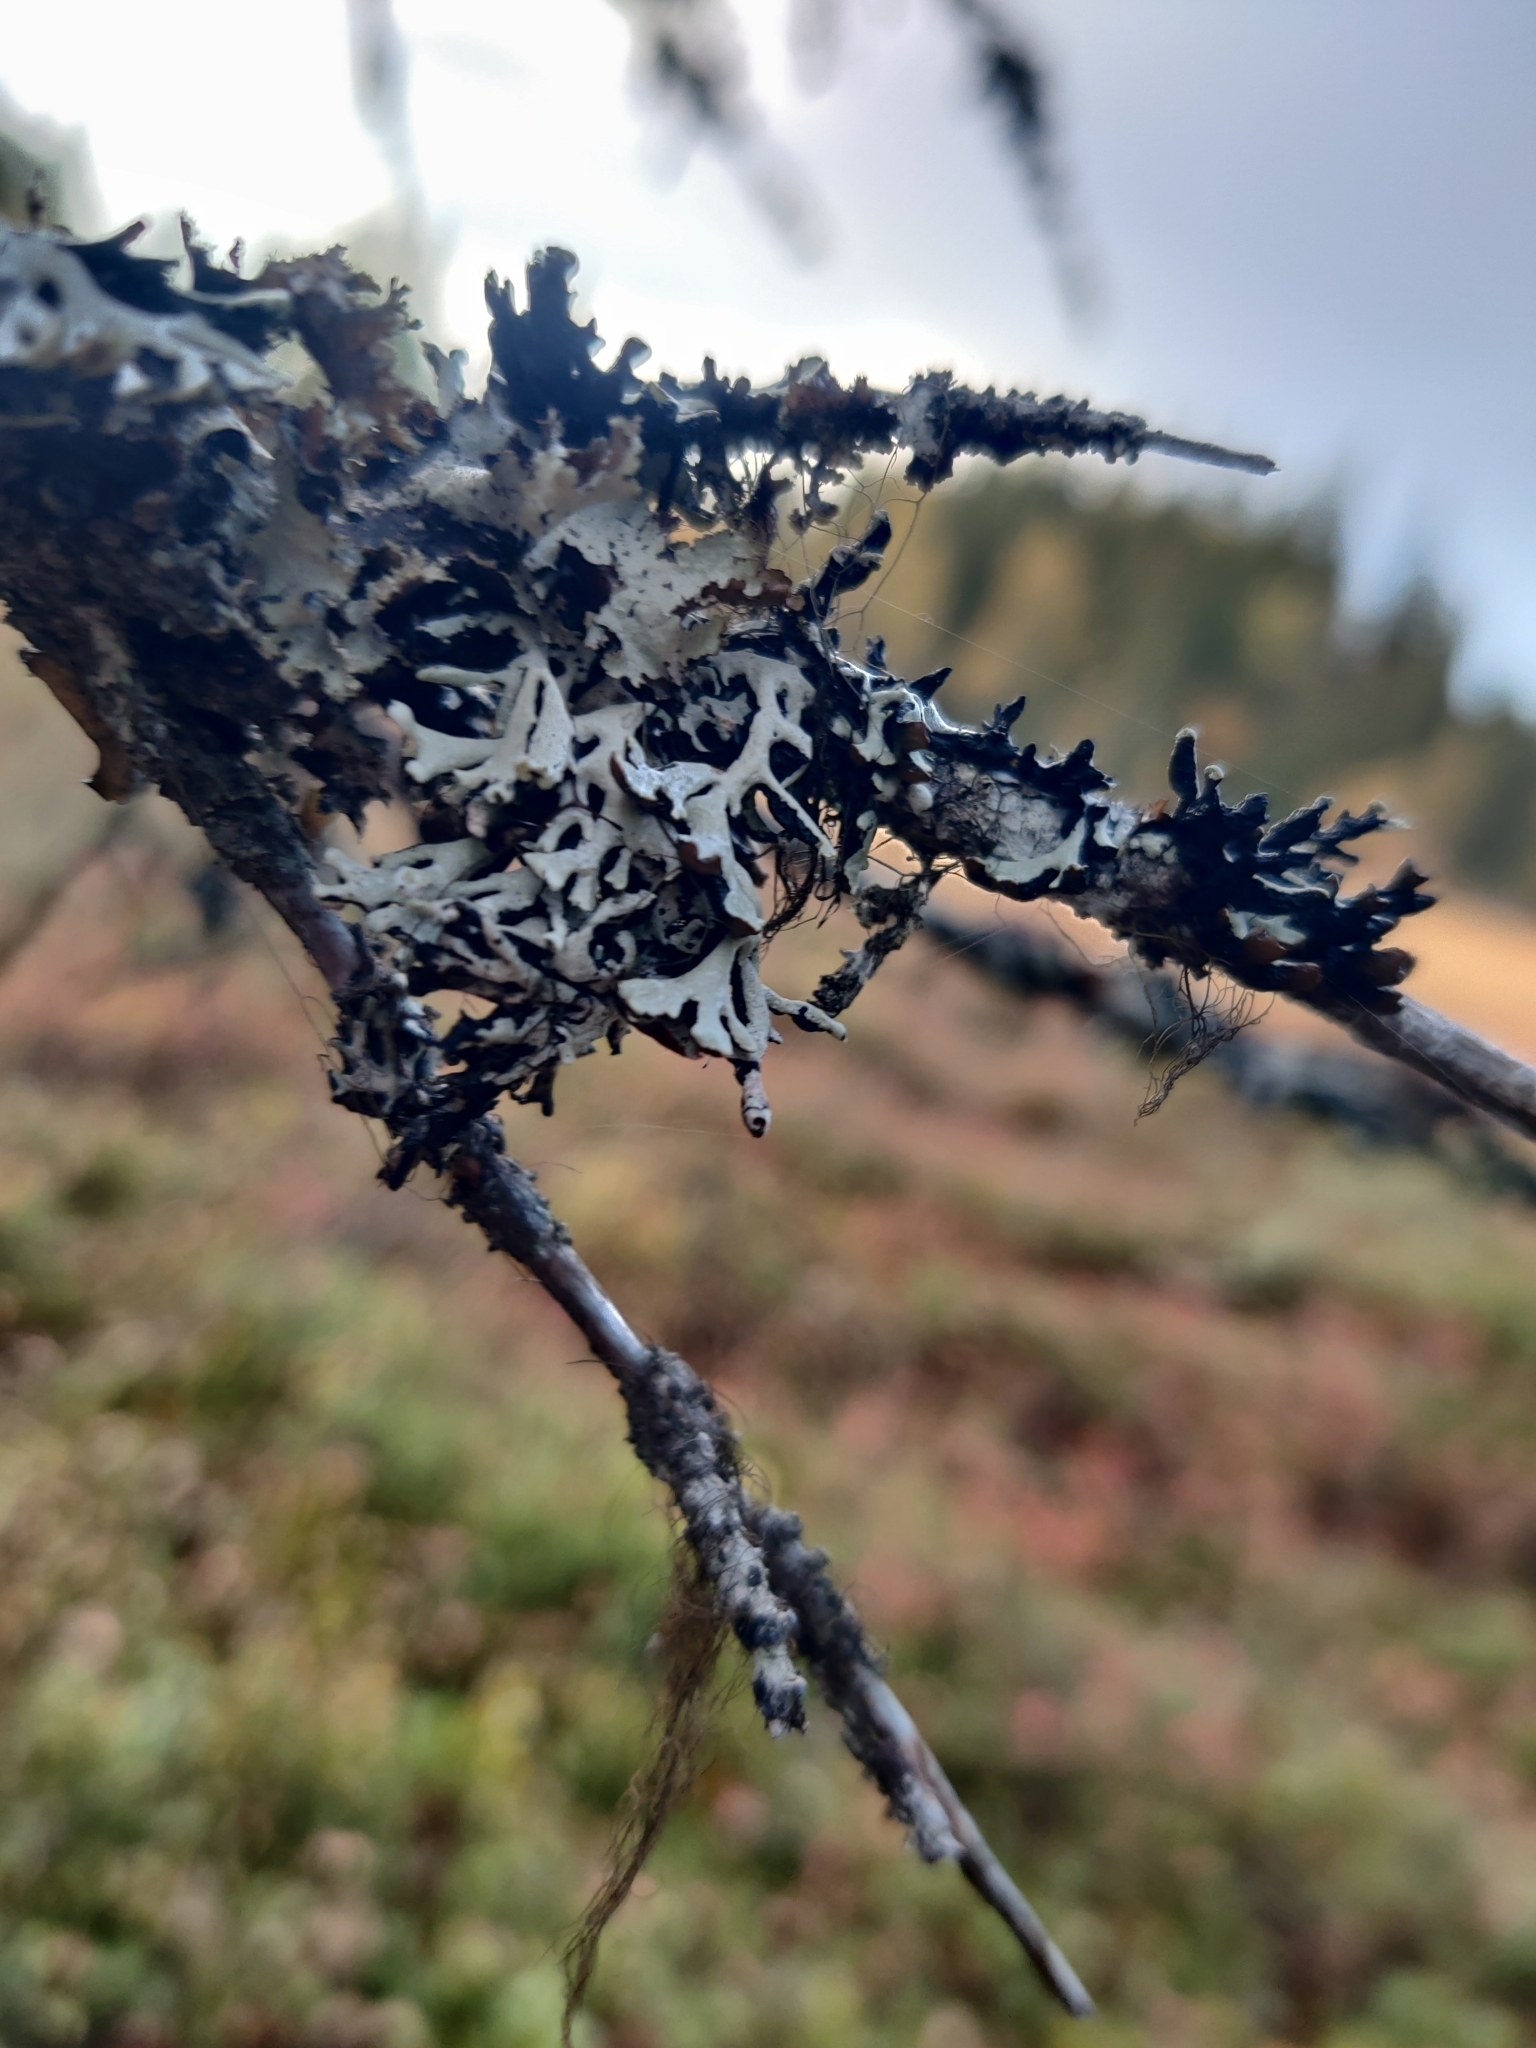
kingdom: Fungi
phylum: Ascomycota
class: Lecanoromycetes
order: Lecanorales
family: Parmeliaceae
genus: Hypogymnia
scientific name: Hypogymnia physodes
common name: Dark crottle
